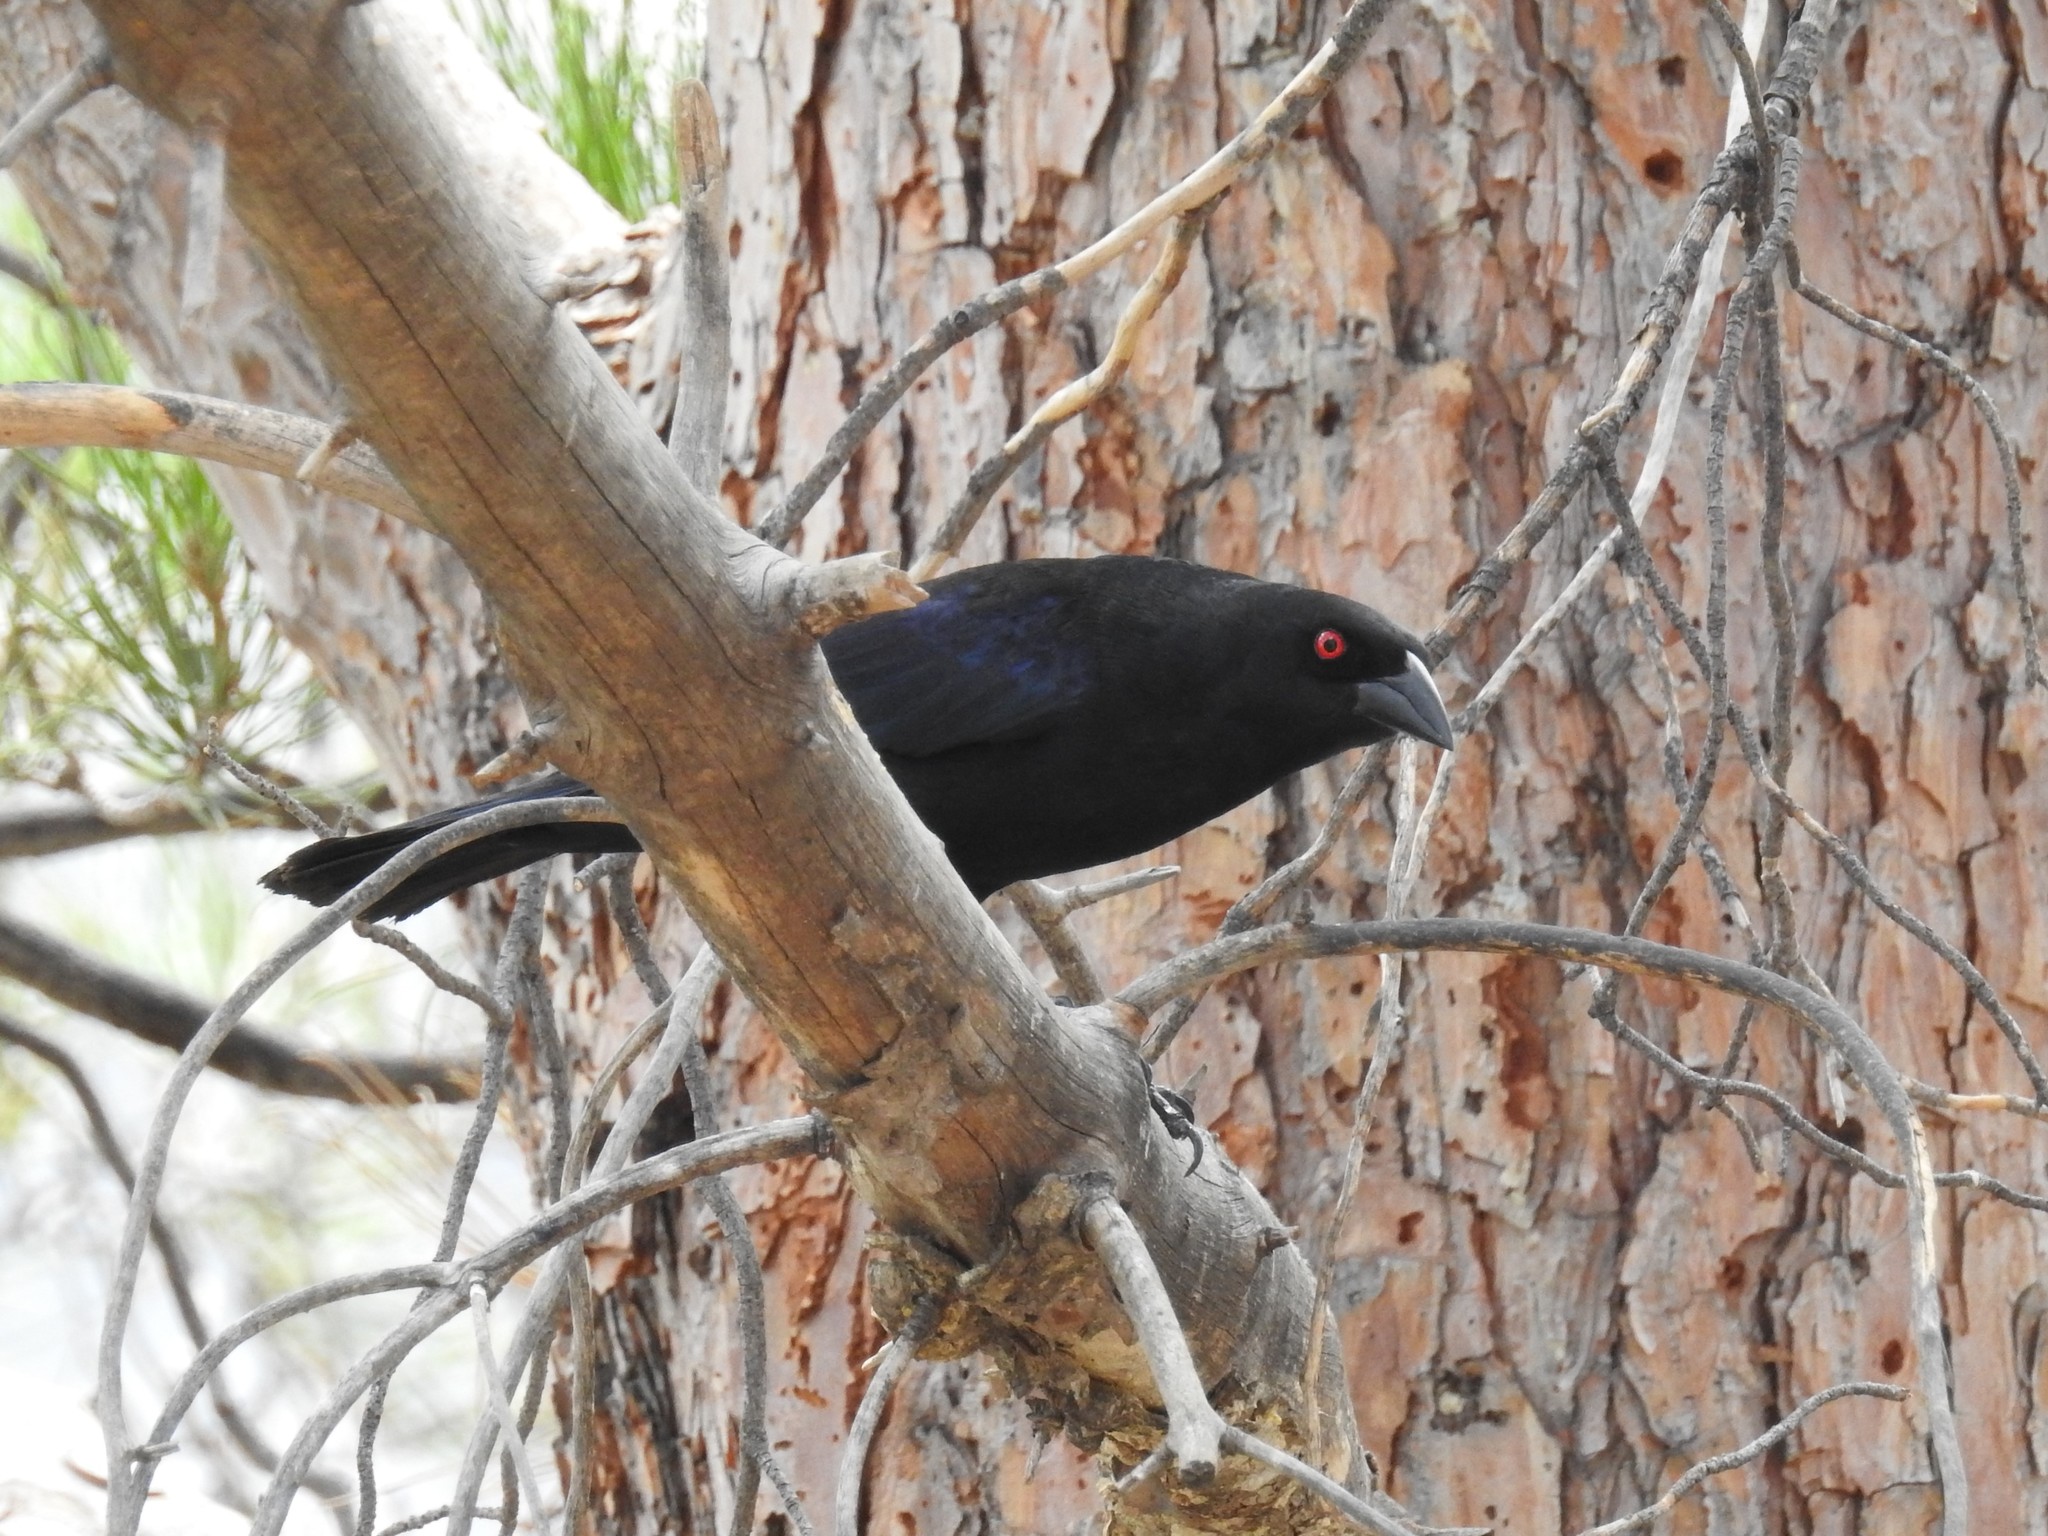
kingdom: Animalia
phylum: Chordata
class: Aves
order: Passeriformes
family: Icteridae
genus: Molothrus
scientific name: Molothrus aeneus
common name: Bronzed cowbird
